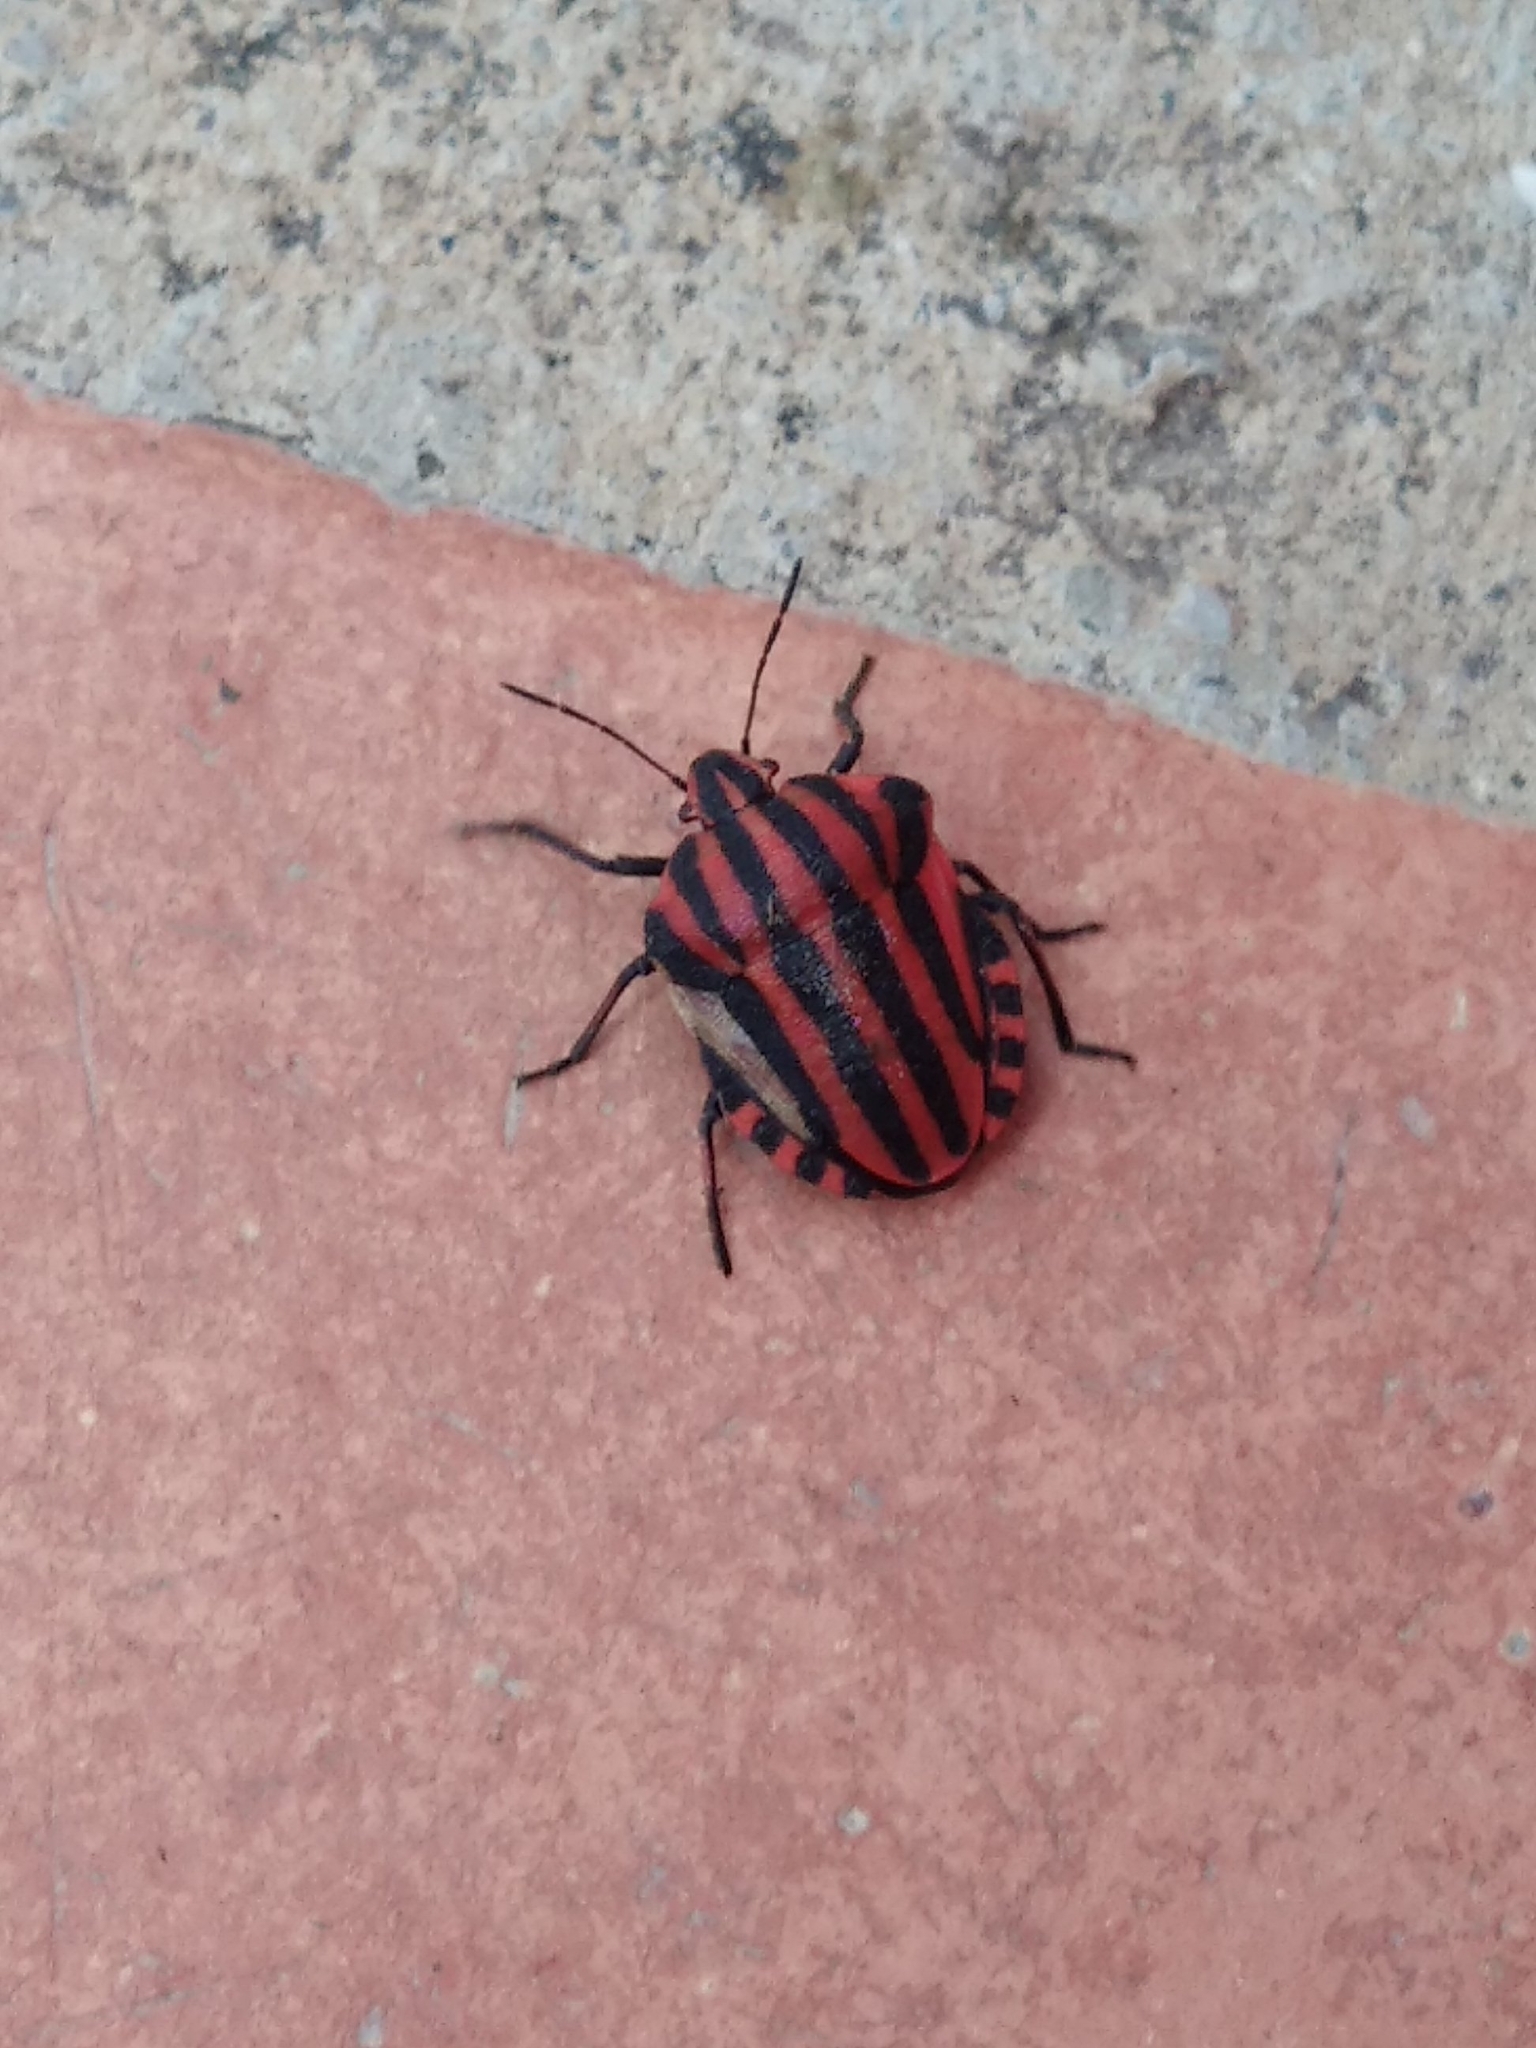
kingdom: Animalia
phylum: Arthropoda
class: Insecta
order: Hemiptera
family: Pentatomidae
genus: Graphosoma
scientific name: Graphosoma italicum
